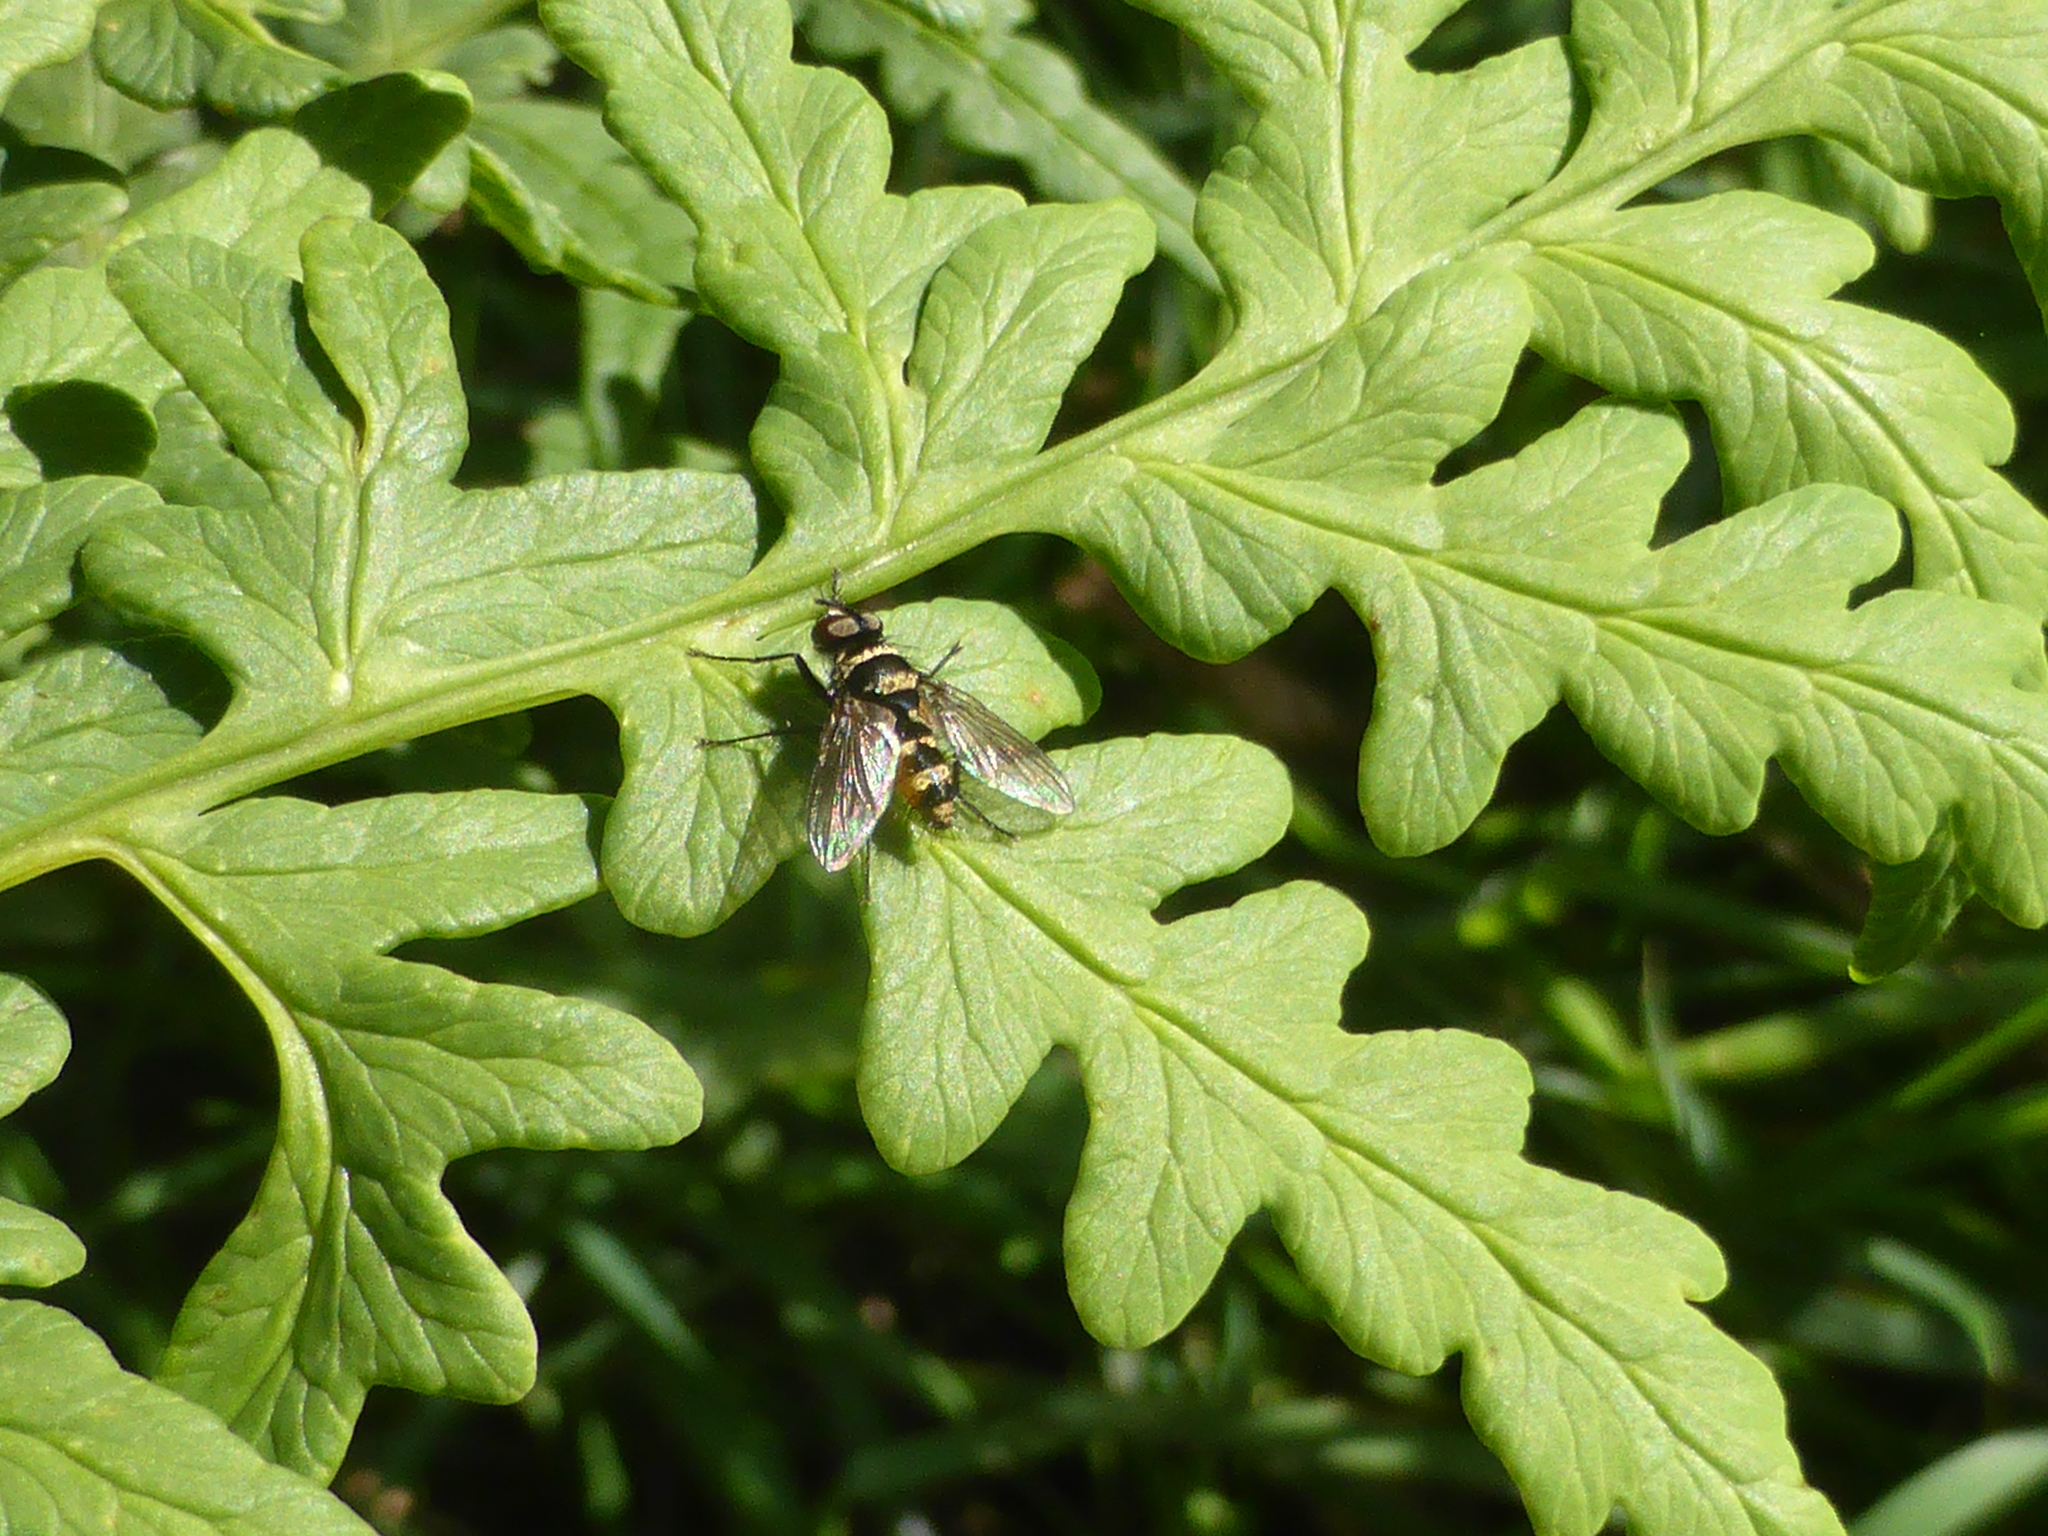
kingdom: Animalia
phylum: Arthropoda
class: Insecta
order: Diptera
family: Tachinidae
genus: Trigonospila
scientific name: Trigonospila brevifacies
